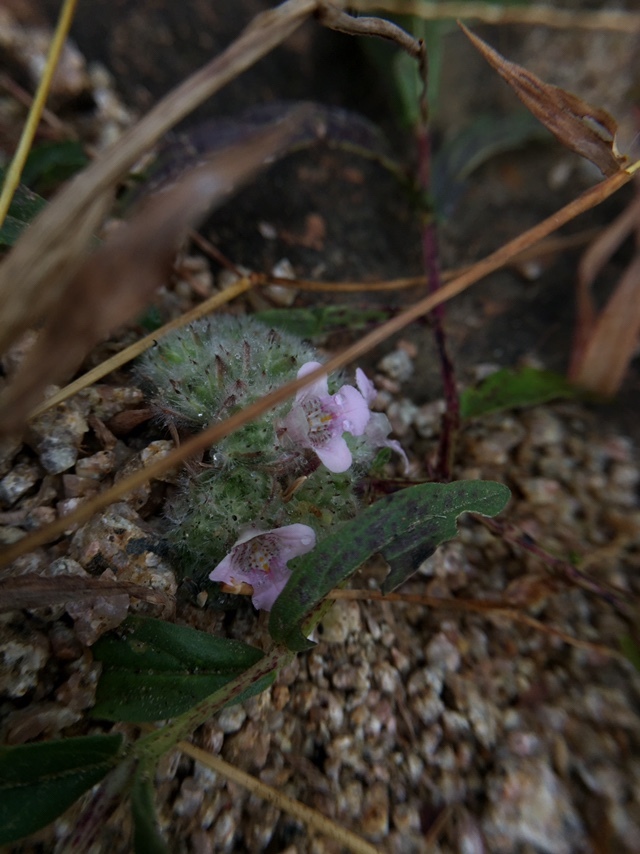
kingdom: Plantae
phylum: Tracheophyta
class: Magnoliopsida
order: Lamiales
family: Acanthaceae
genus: Lepidagathis
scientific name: Lepidagathis cristata
